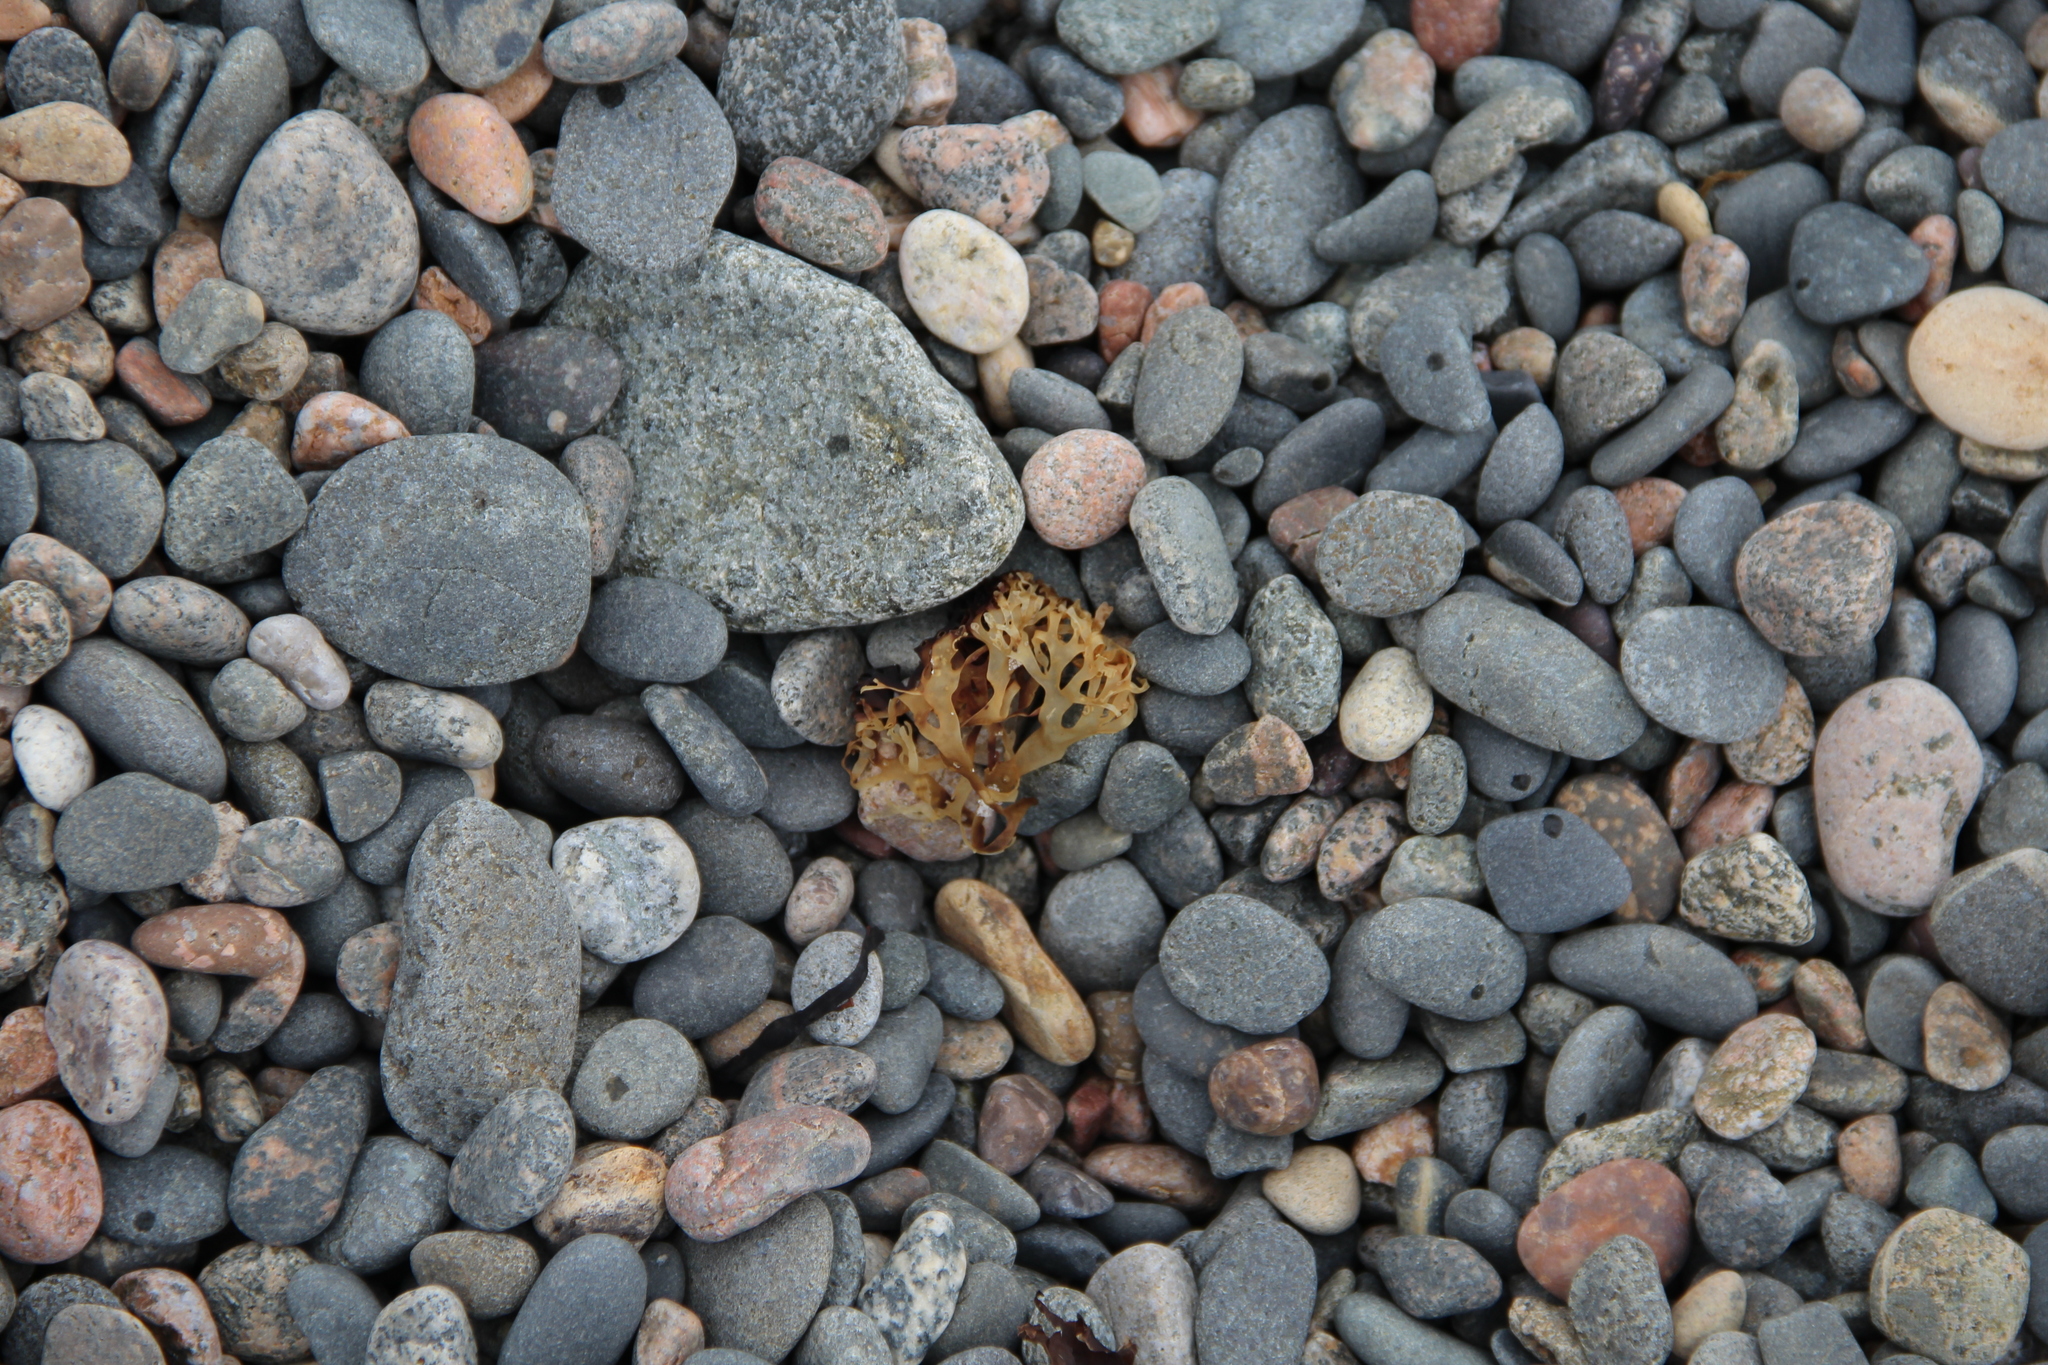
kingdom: Plantae
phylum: Rhodophyta
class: Florideophyceae
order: Gigartinales
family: Gigartinaceae
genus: Chondrus
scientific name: Chondrus crispus
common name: Carrageen
